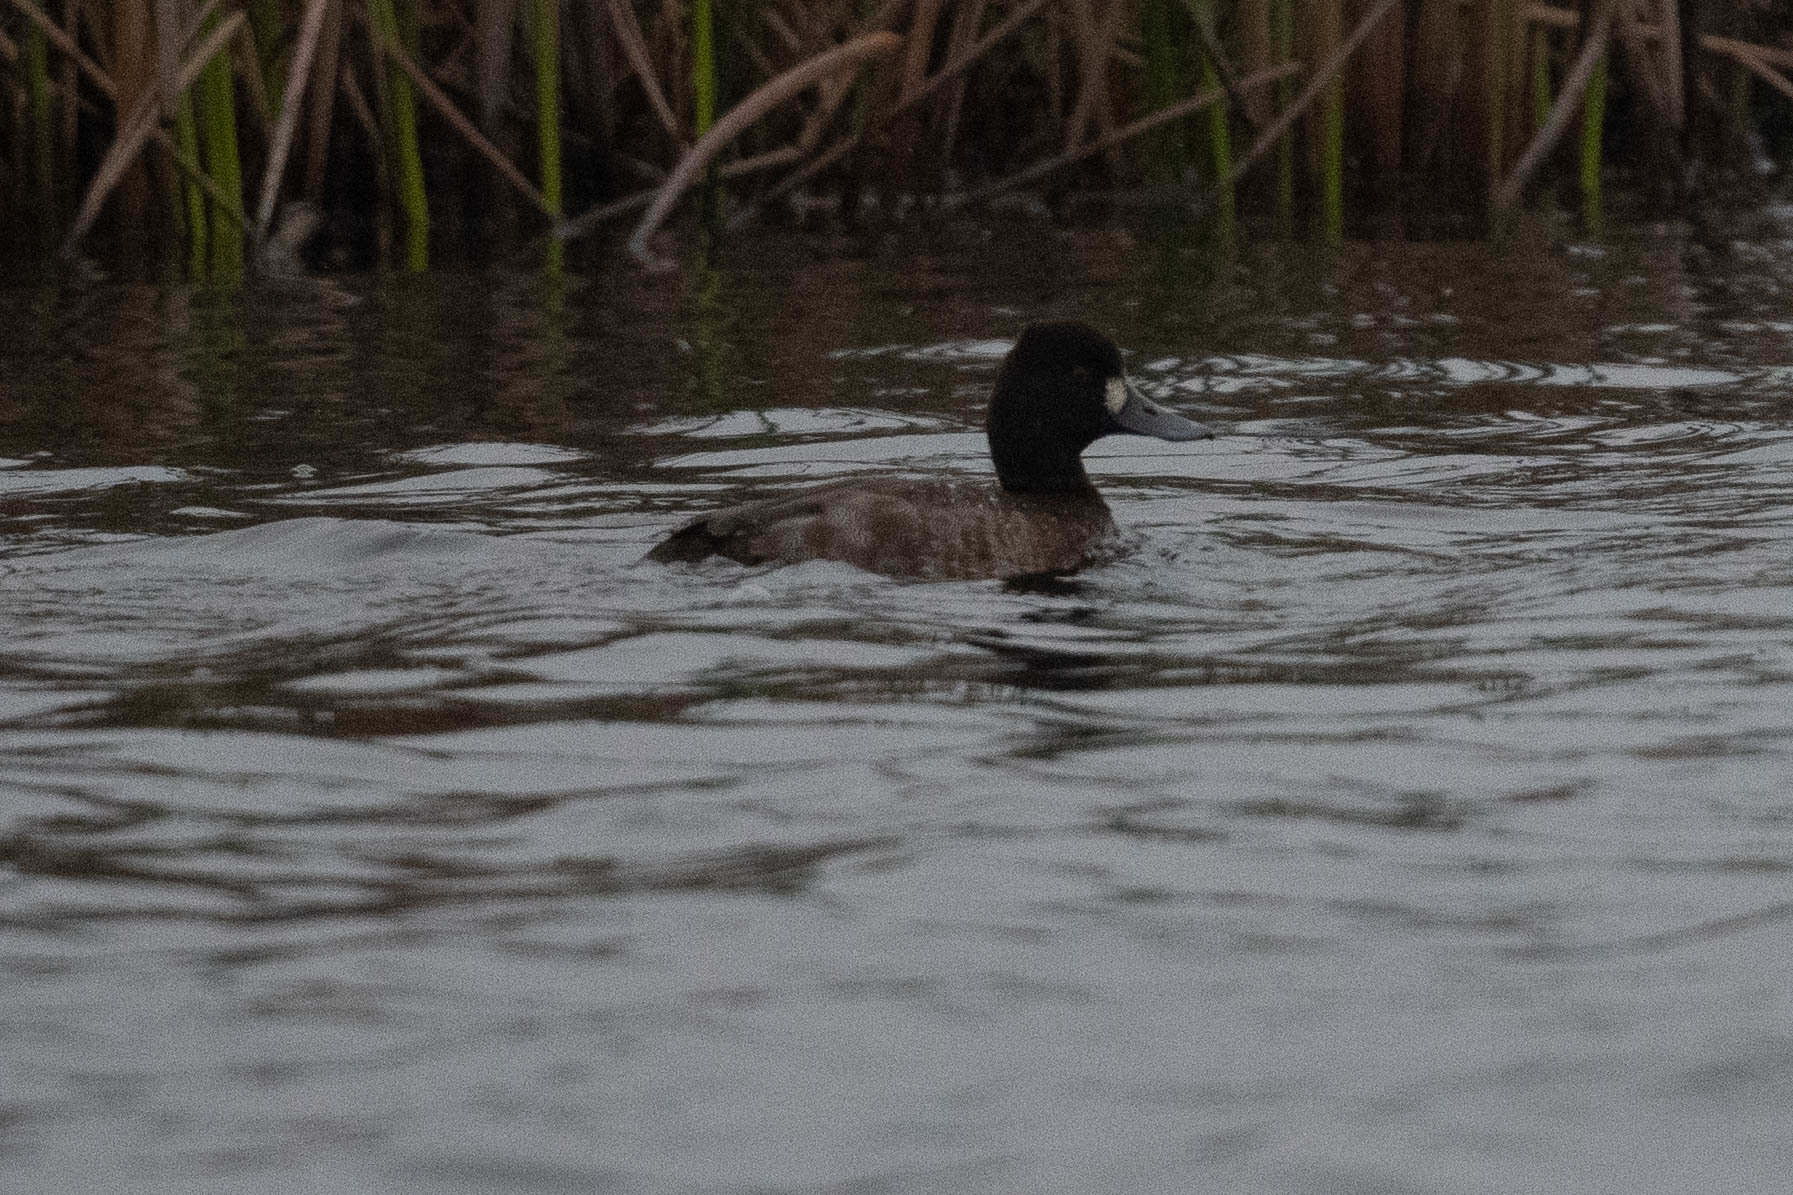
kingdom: Animalia
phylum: Chordata
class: Aves
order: Anseriformes
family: Anatidae
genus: Aythya
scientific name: Aythya affinis
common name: Lesser scaup
